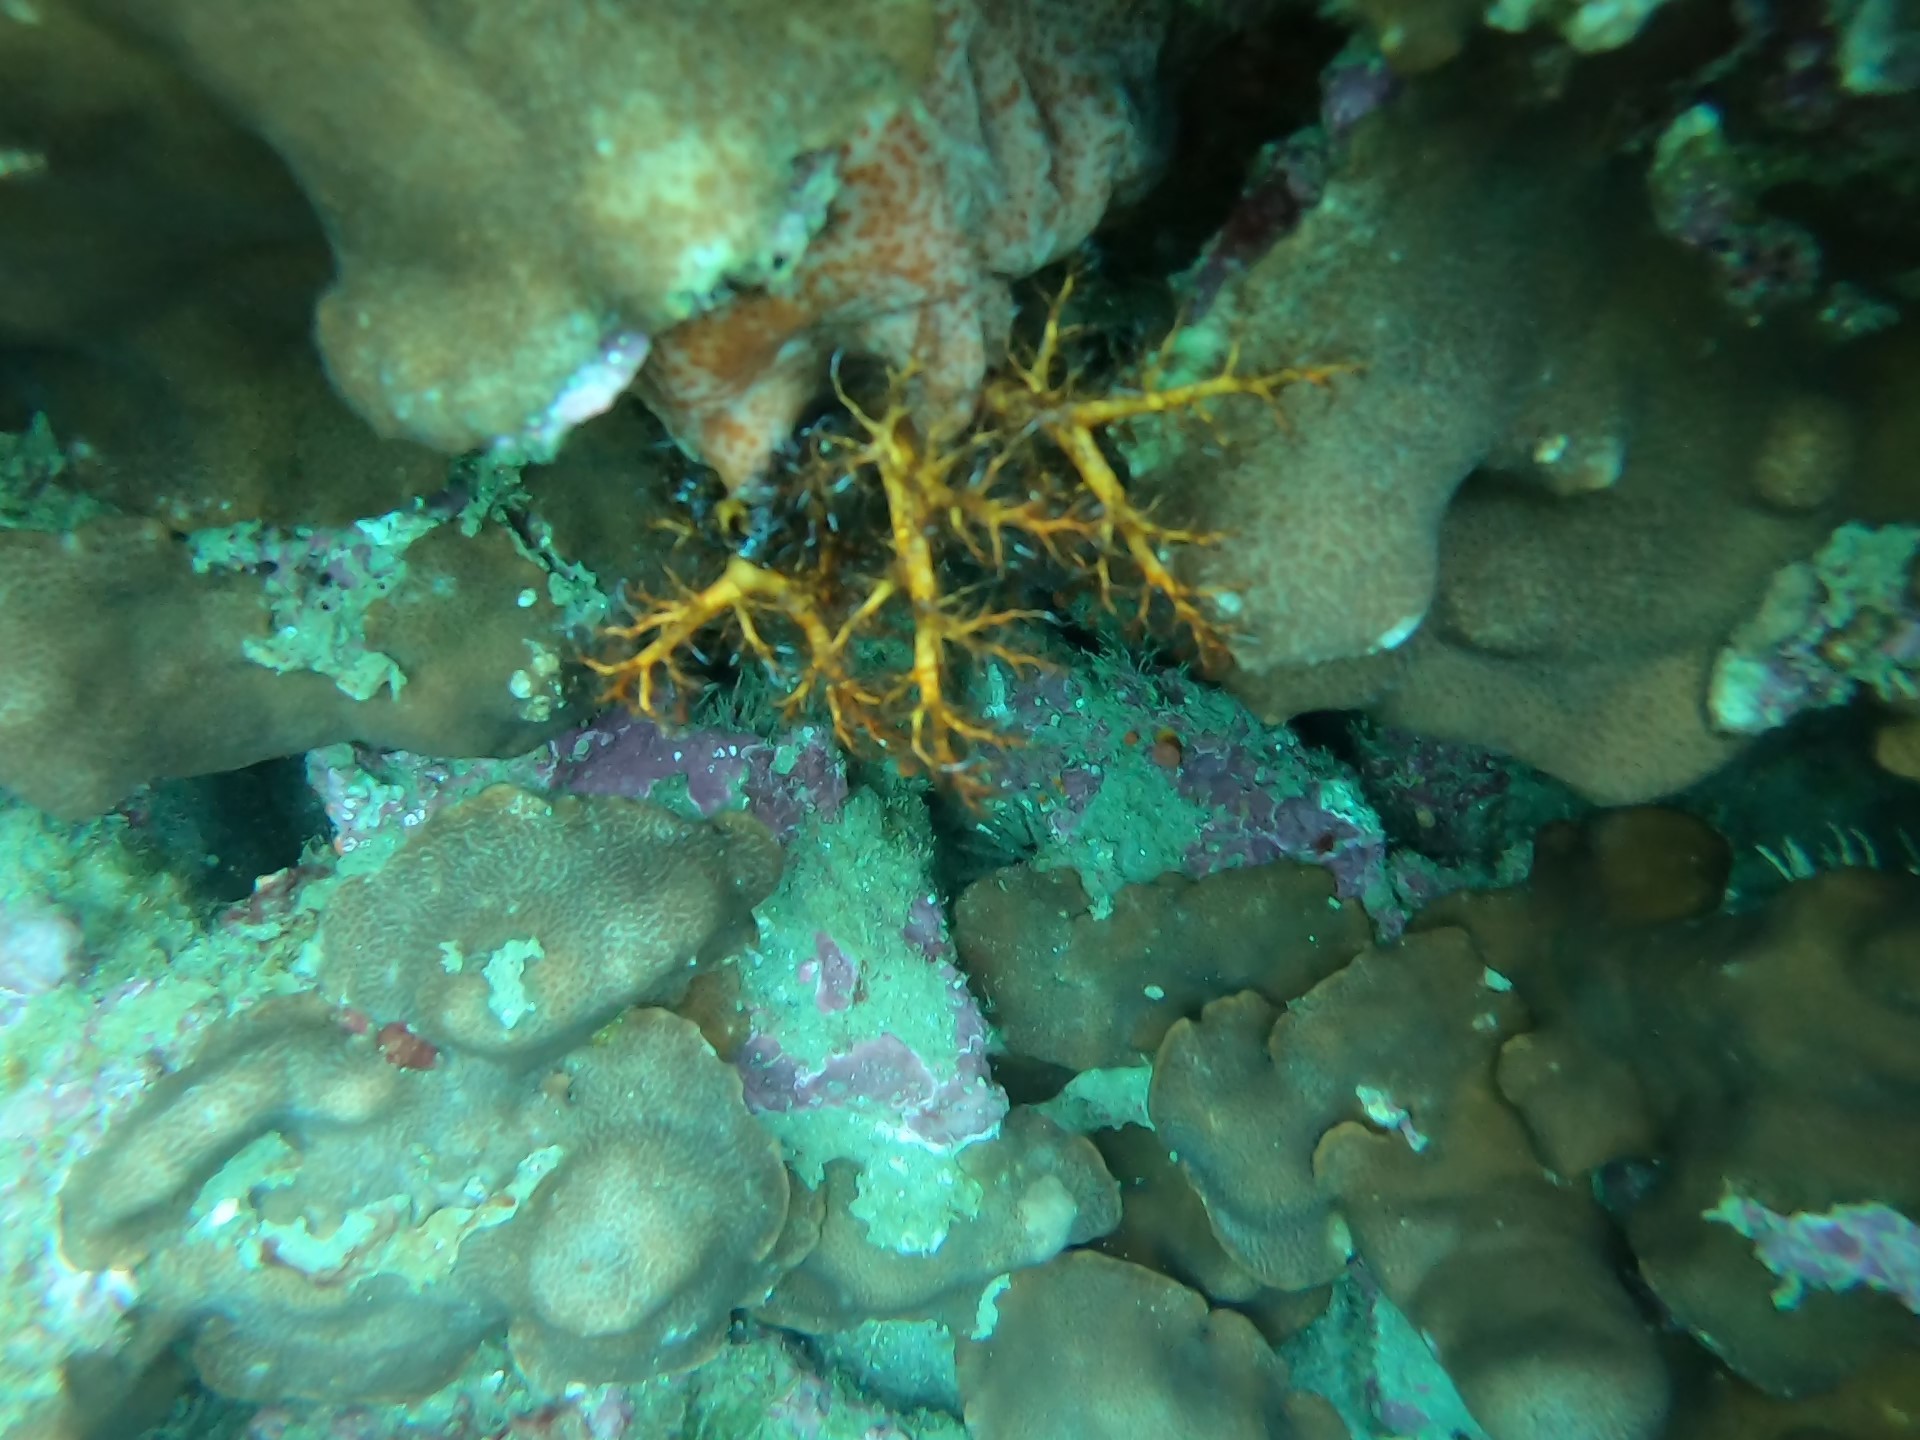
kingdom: Animalia
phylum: Echinodermata
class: Holothuroidea
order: Dendrochirotida
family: Cucumariidae
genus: Cucumaria
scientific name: Cucumaria flamma
